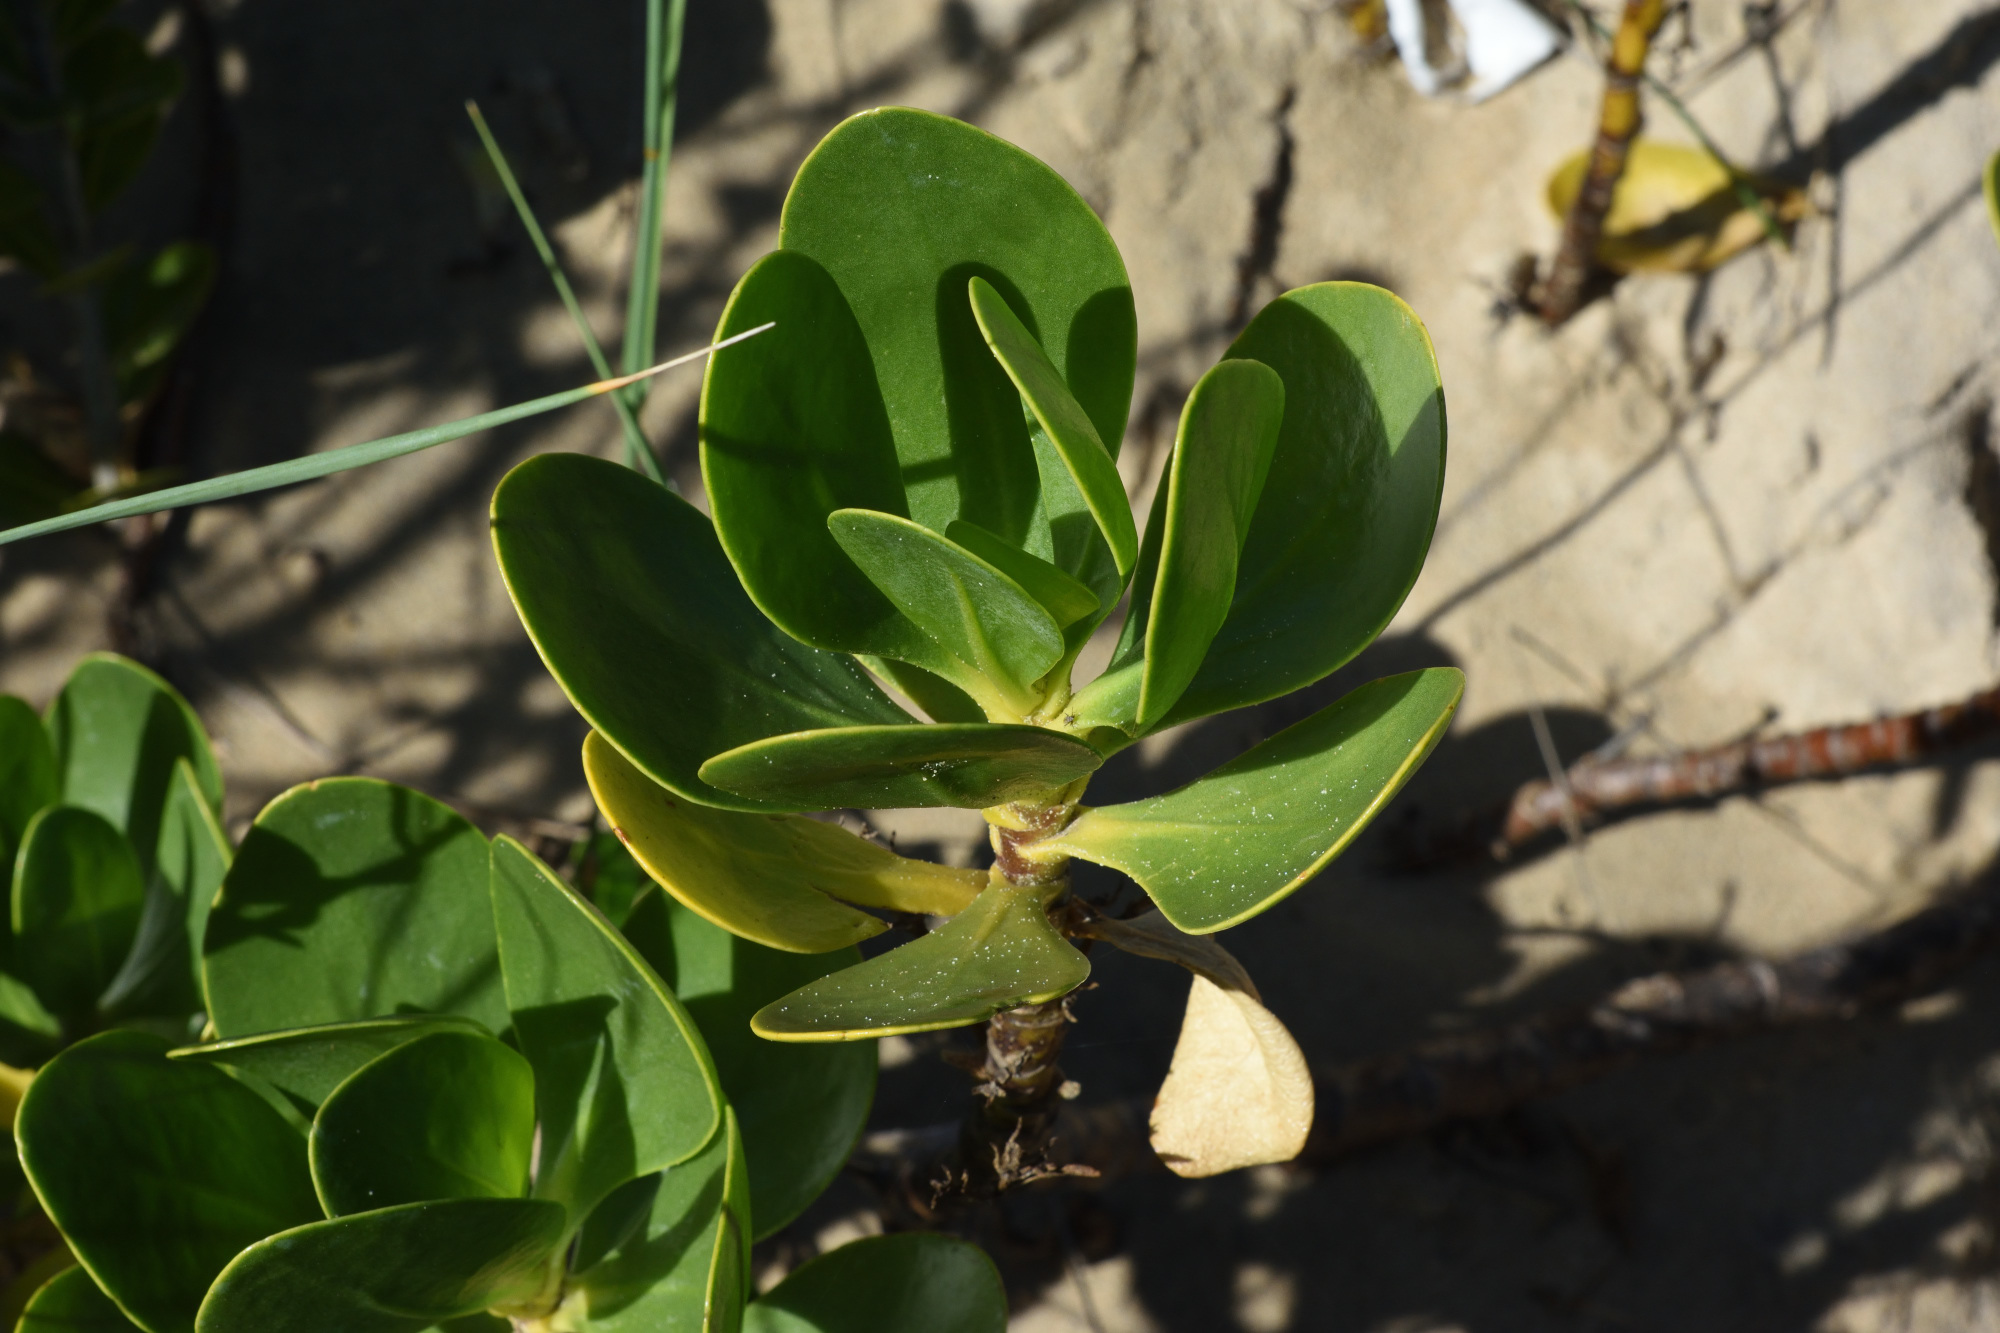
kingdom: Plantae
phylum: Tracheophyta
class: Magnoliopsida
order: Asterales
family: Goodeniaceae
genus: Scaevola
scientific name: Scaevola plumieri
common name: Gull feed
